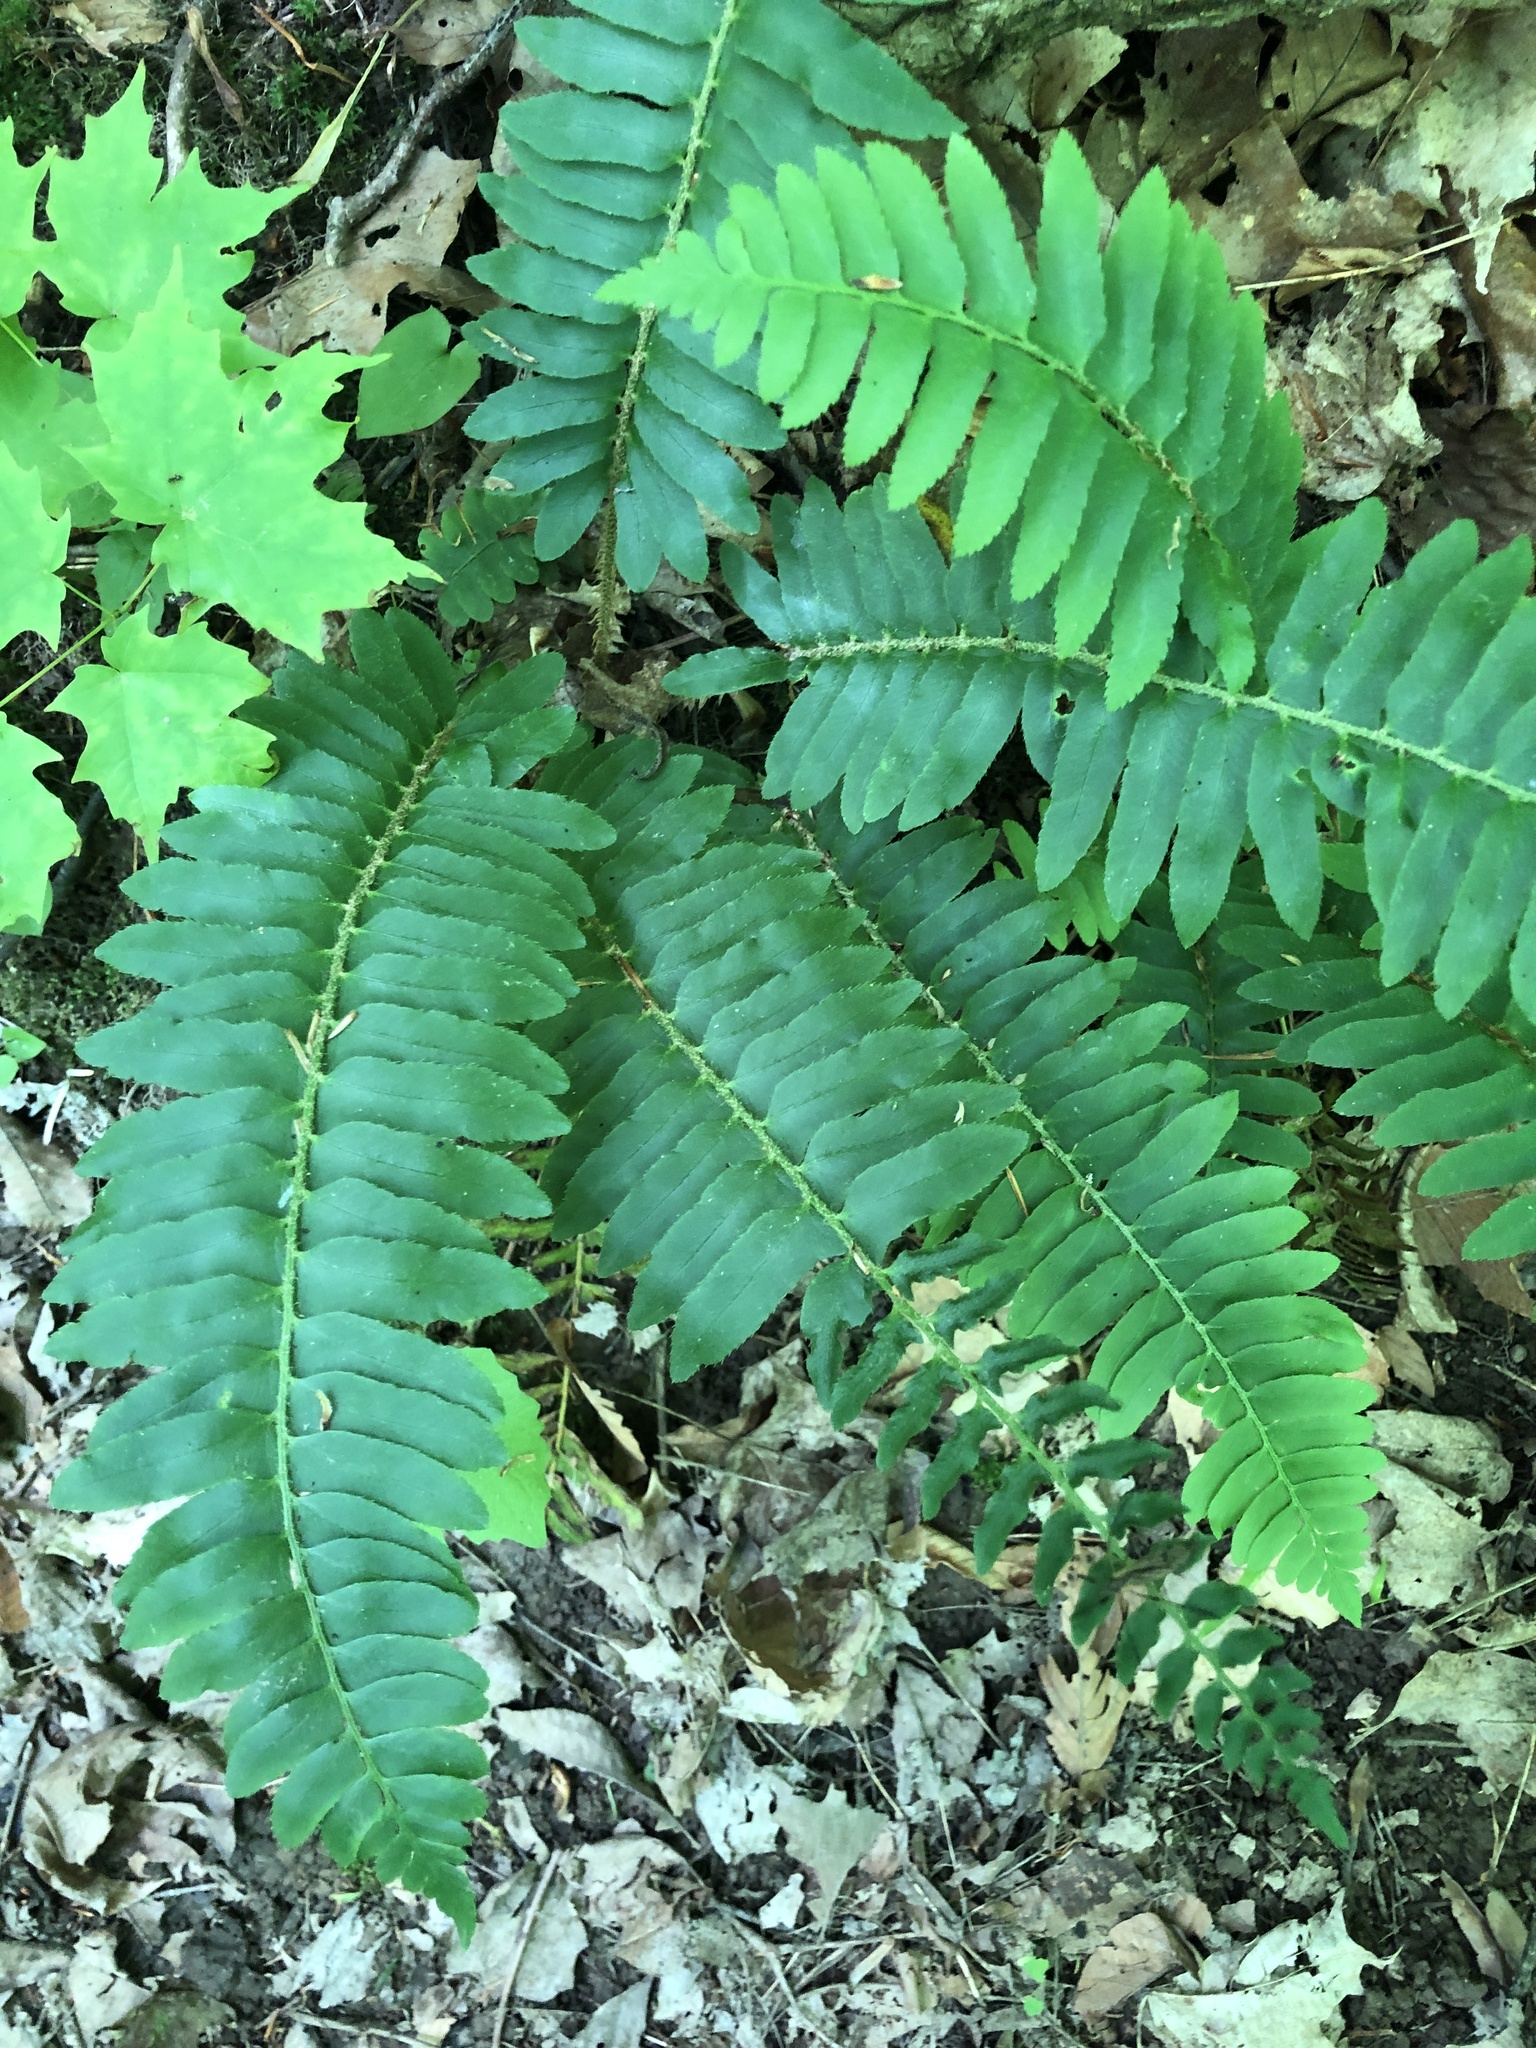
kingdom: Plantae
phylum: Tracheophyta
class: Polypodiopsida
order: Polypodiales
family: Dryopteridaceae
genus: Polystichum
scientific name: Polystichum acrostichoides
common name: Christmas fern
